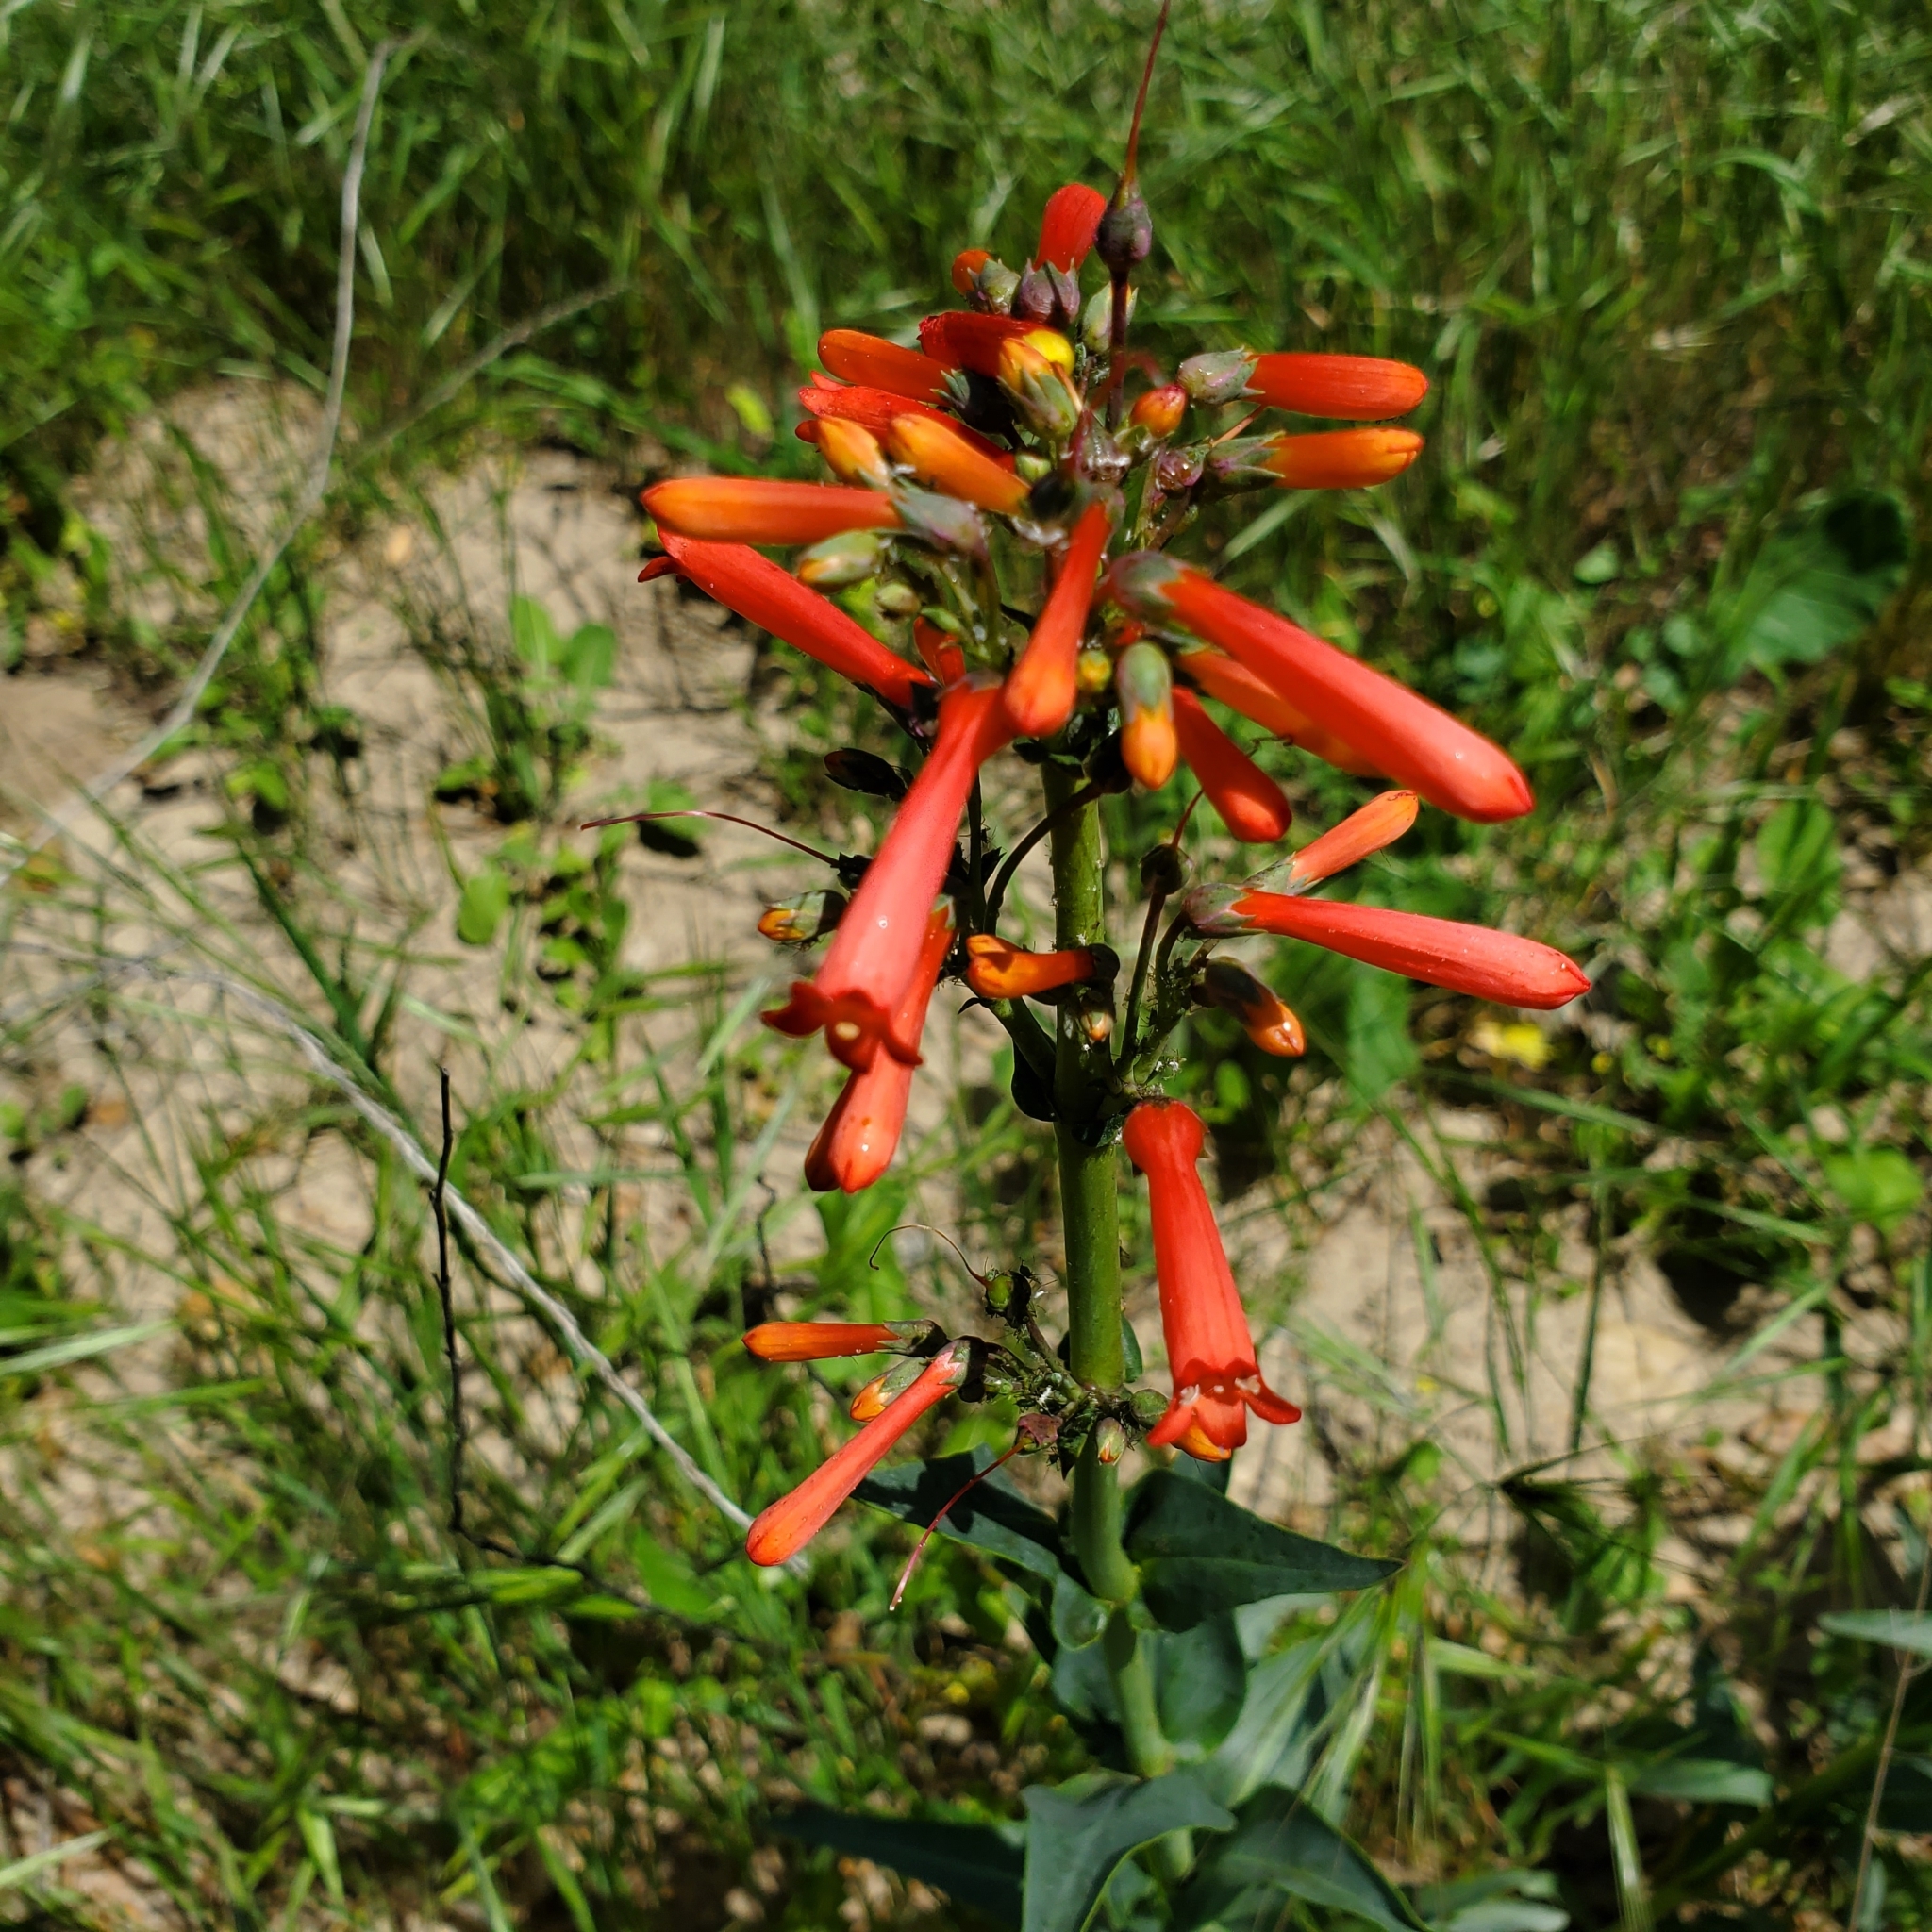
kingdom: Plantae
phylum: Tracheophyta
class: Magnoliopsida
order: Lamiales
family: Plantaginaceae
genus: Penstemon
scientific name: Penstemon centranthifolius
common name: Scarlet bugler
